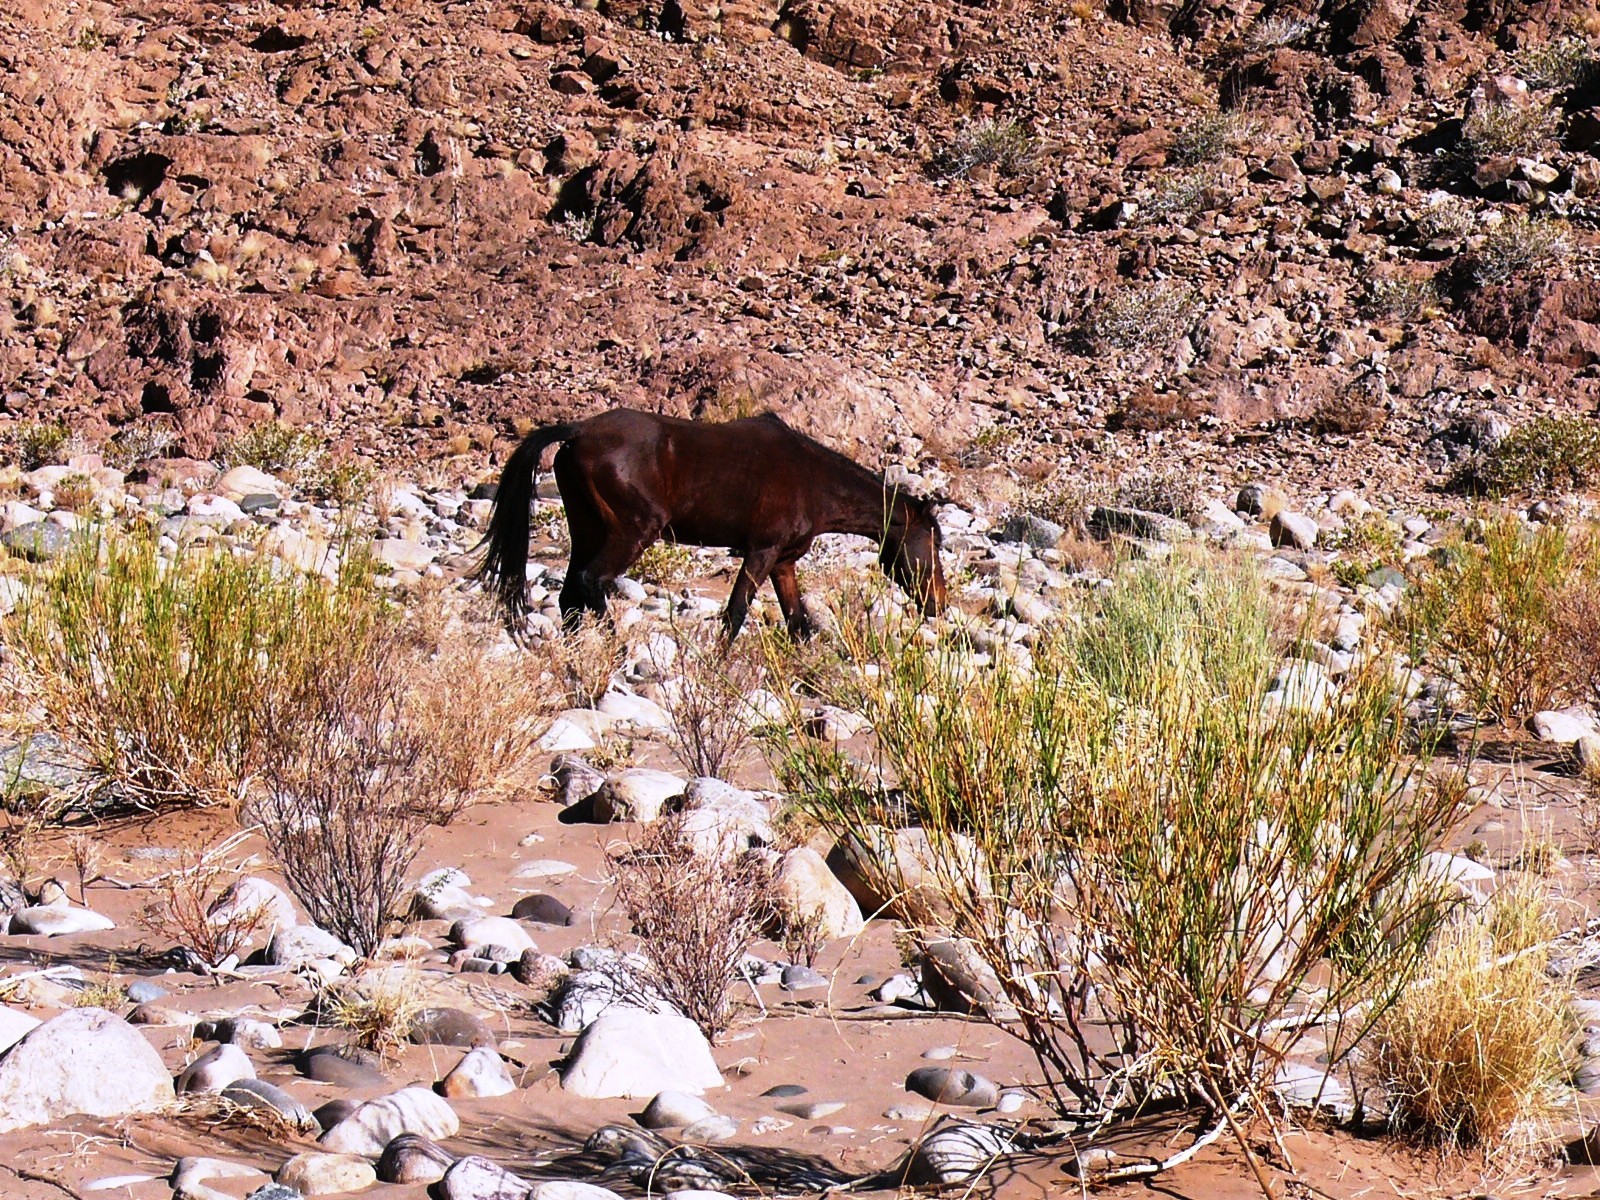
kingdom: Animalia
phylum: Chordata
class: Mammalia
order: Perissodactyla
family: Equidae
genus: Equus
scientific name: Equus caballus
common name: Horse
